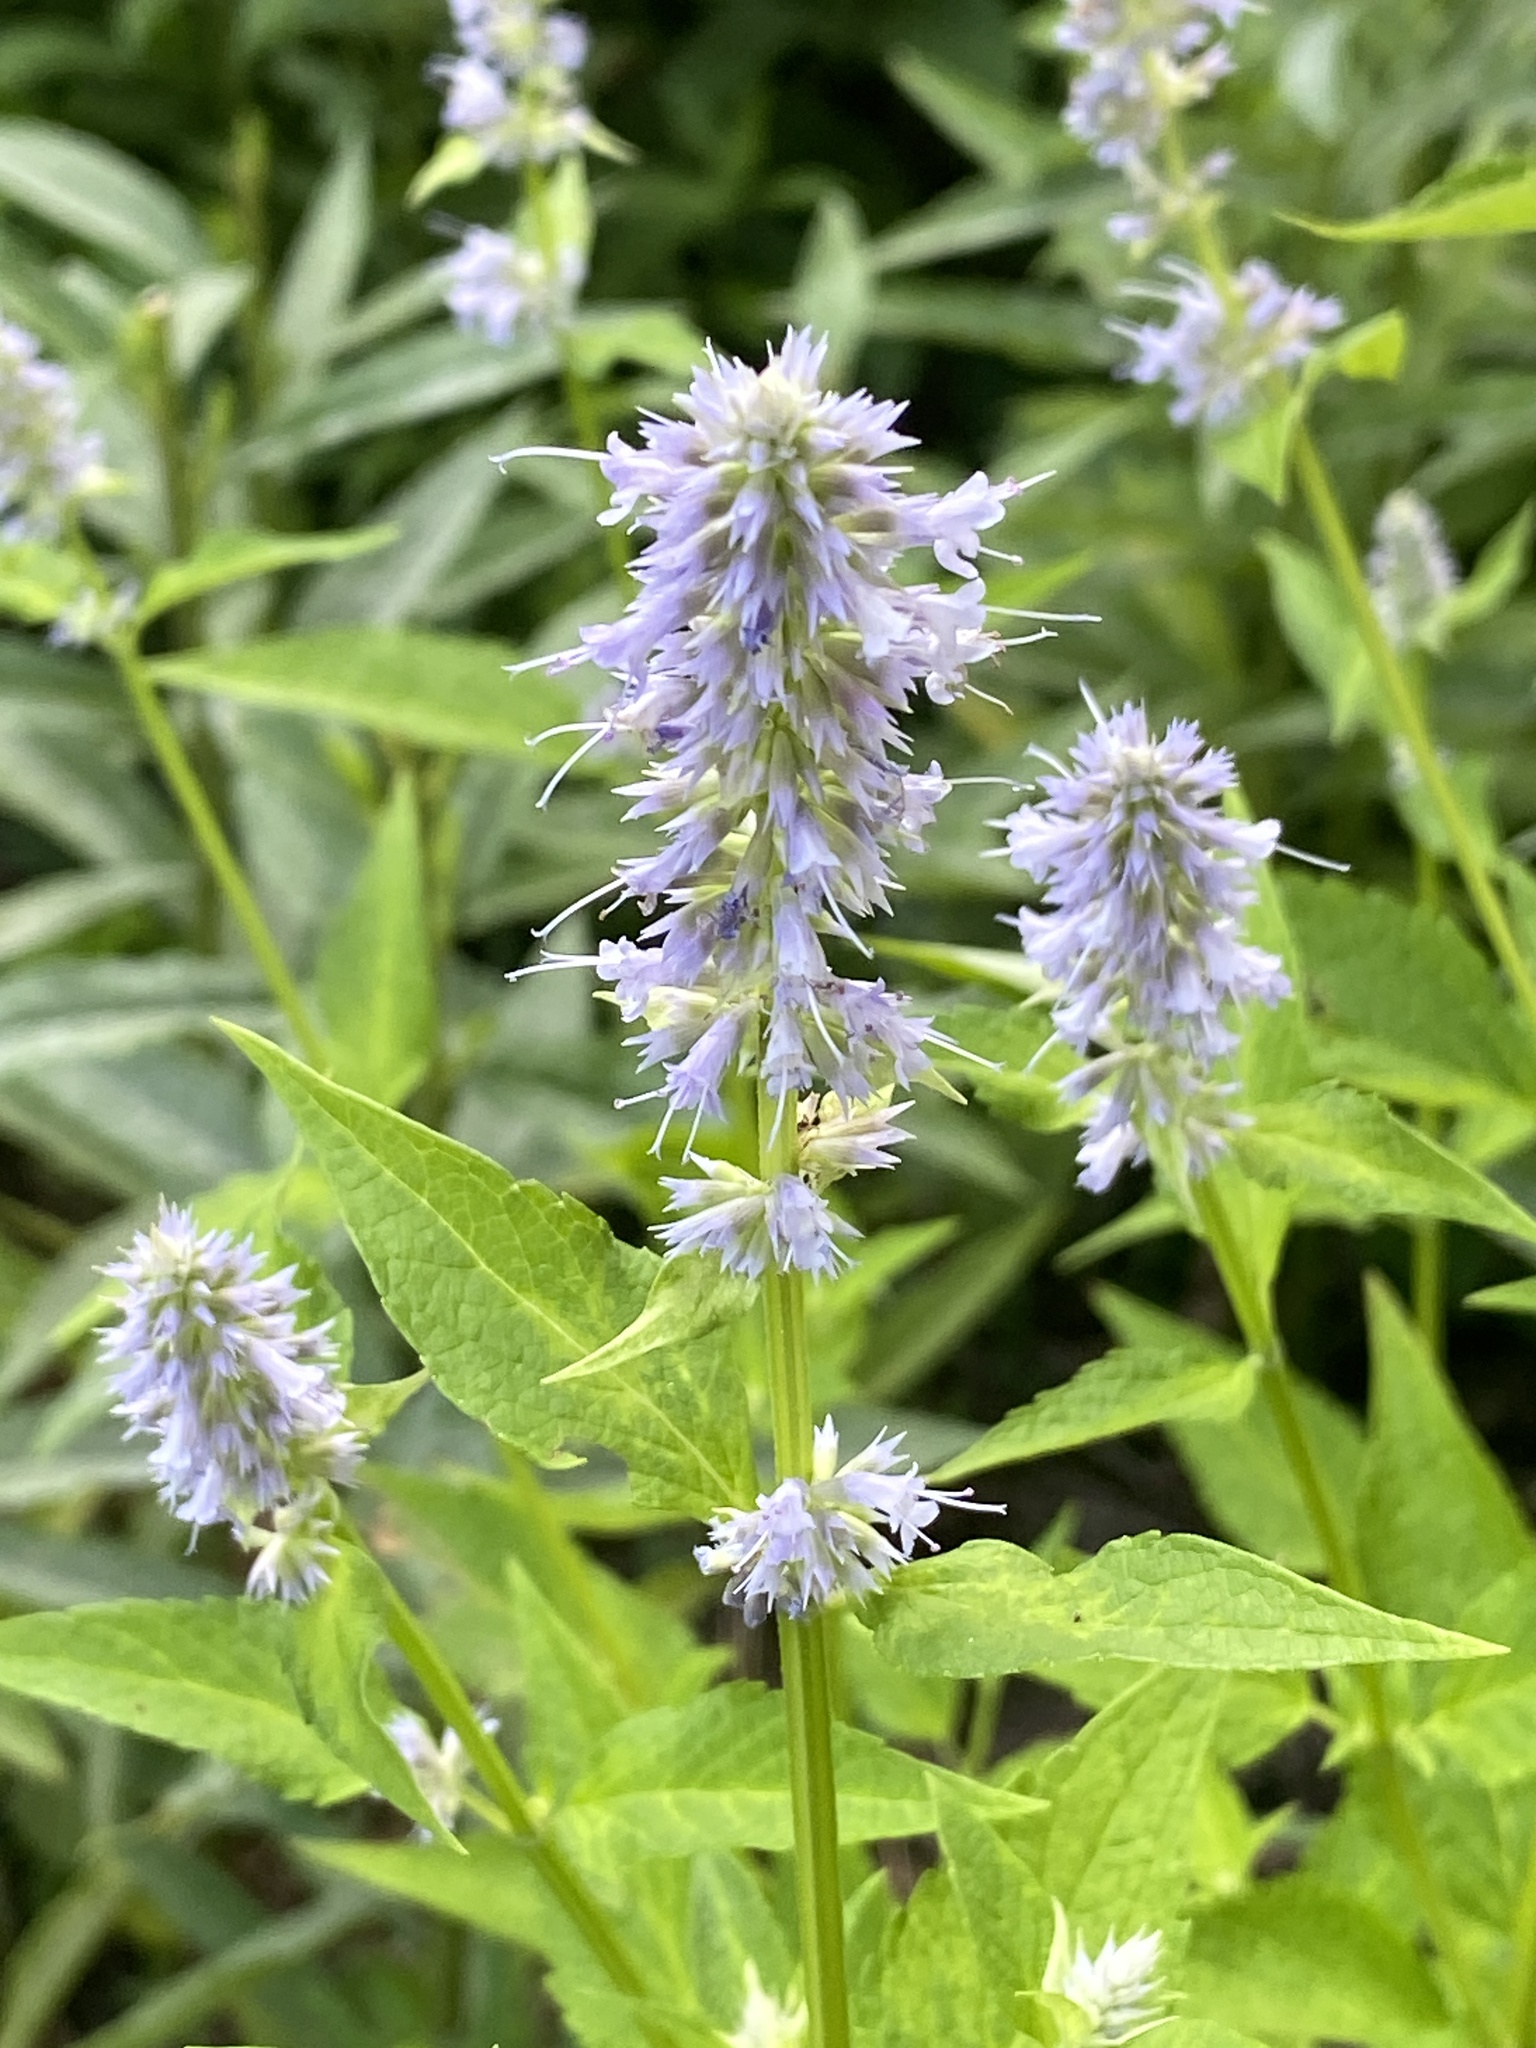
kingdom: Plantae
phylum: Tracheophyta
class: Magnoliopsida
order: Lamiales
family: Lamiaceae
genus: Agastache
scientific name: Agastache foeniculum
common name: Anise hyssop
